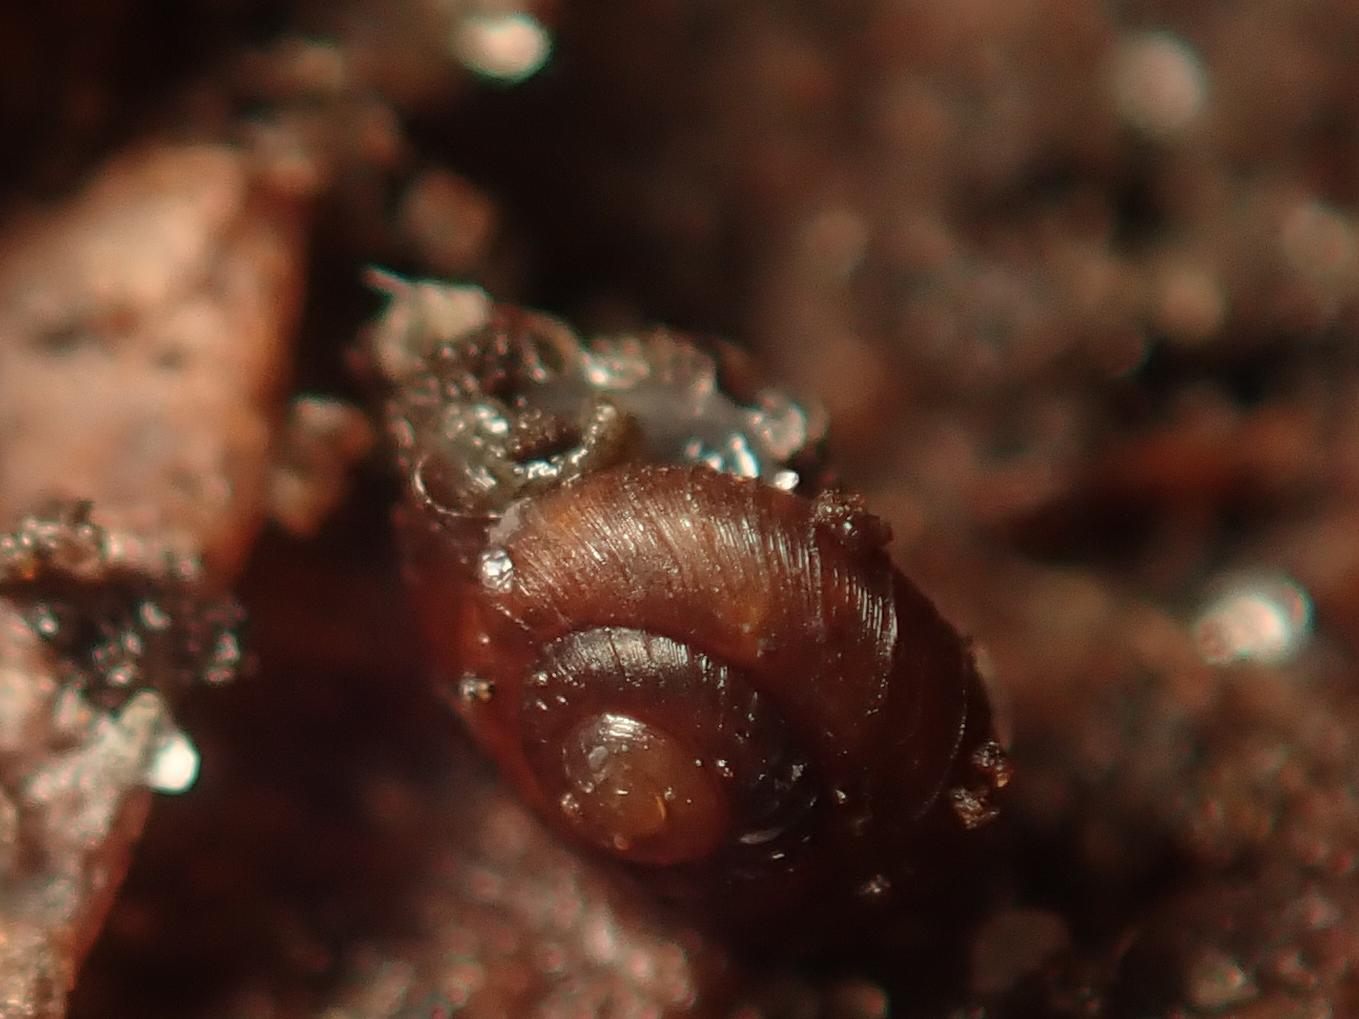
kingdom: Animalia
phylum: Mollusca
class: Gastropoda
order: Stylommatophora
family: Punctidae
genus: Paralaoma
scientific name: Paralaoma servilis
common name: Pinhead spot
